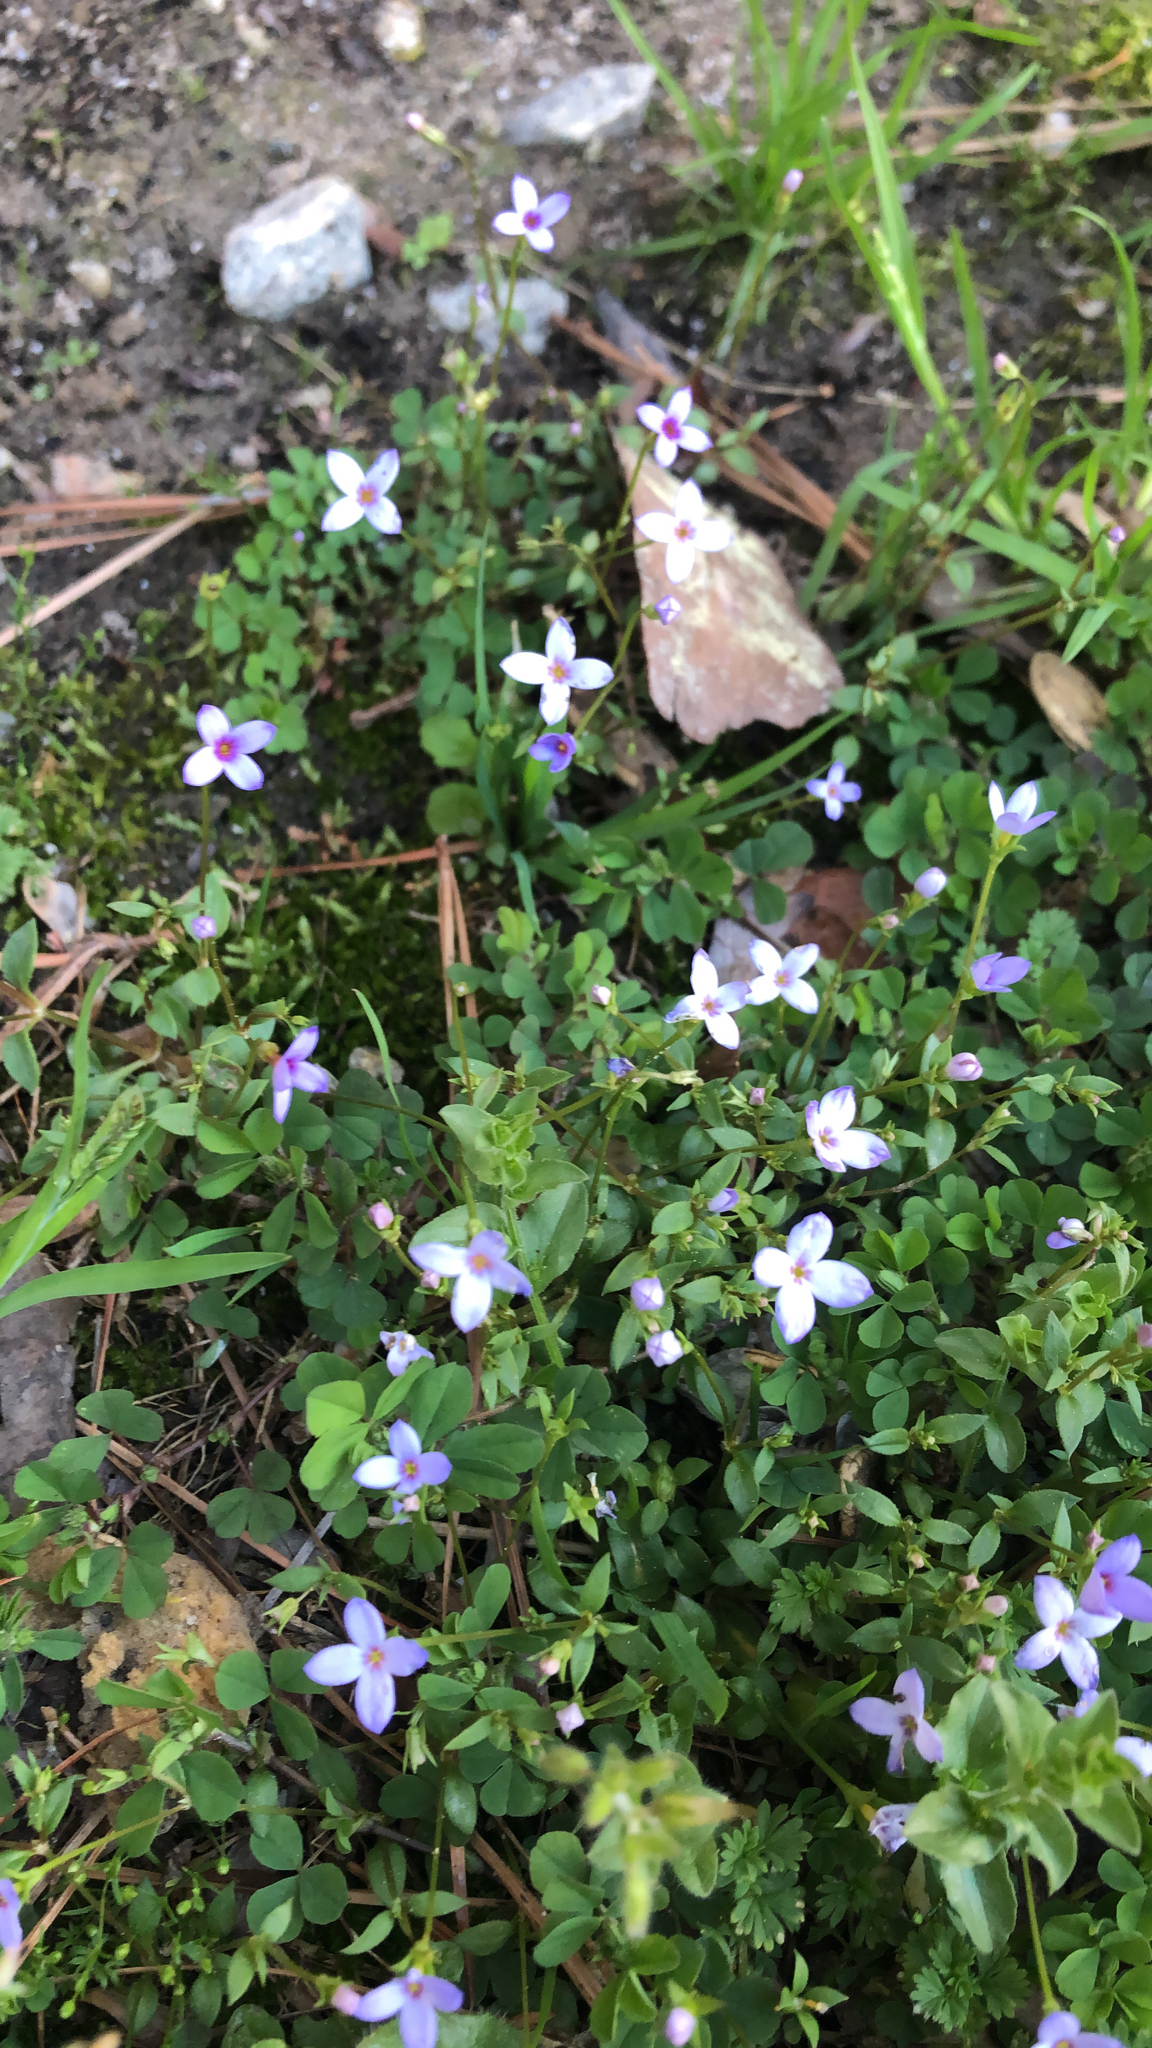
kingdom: Plantae
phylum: Tracheophyta
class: Magnoliopsida
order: Gentianales
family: Rubiaceae
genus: Houstonia
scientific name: Houstonia pusilla
